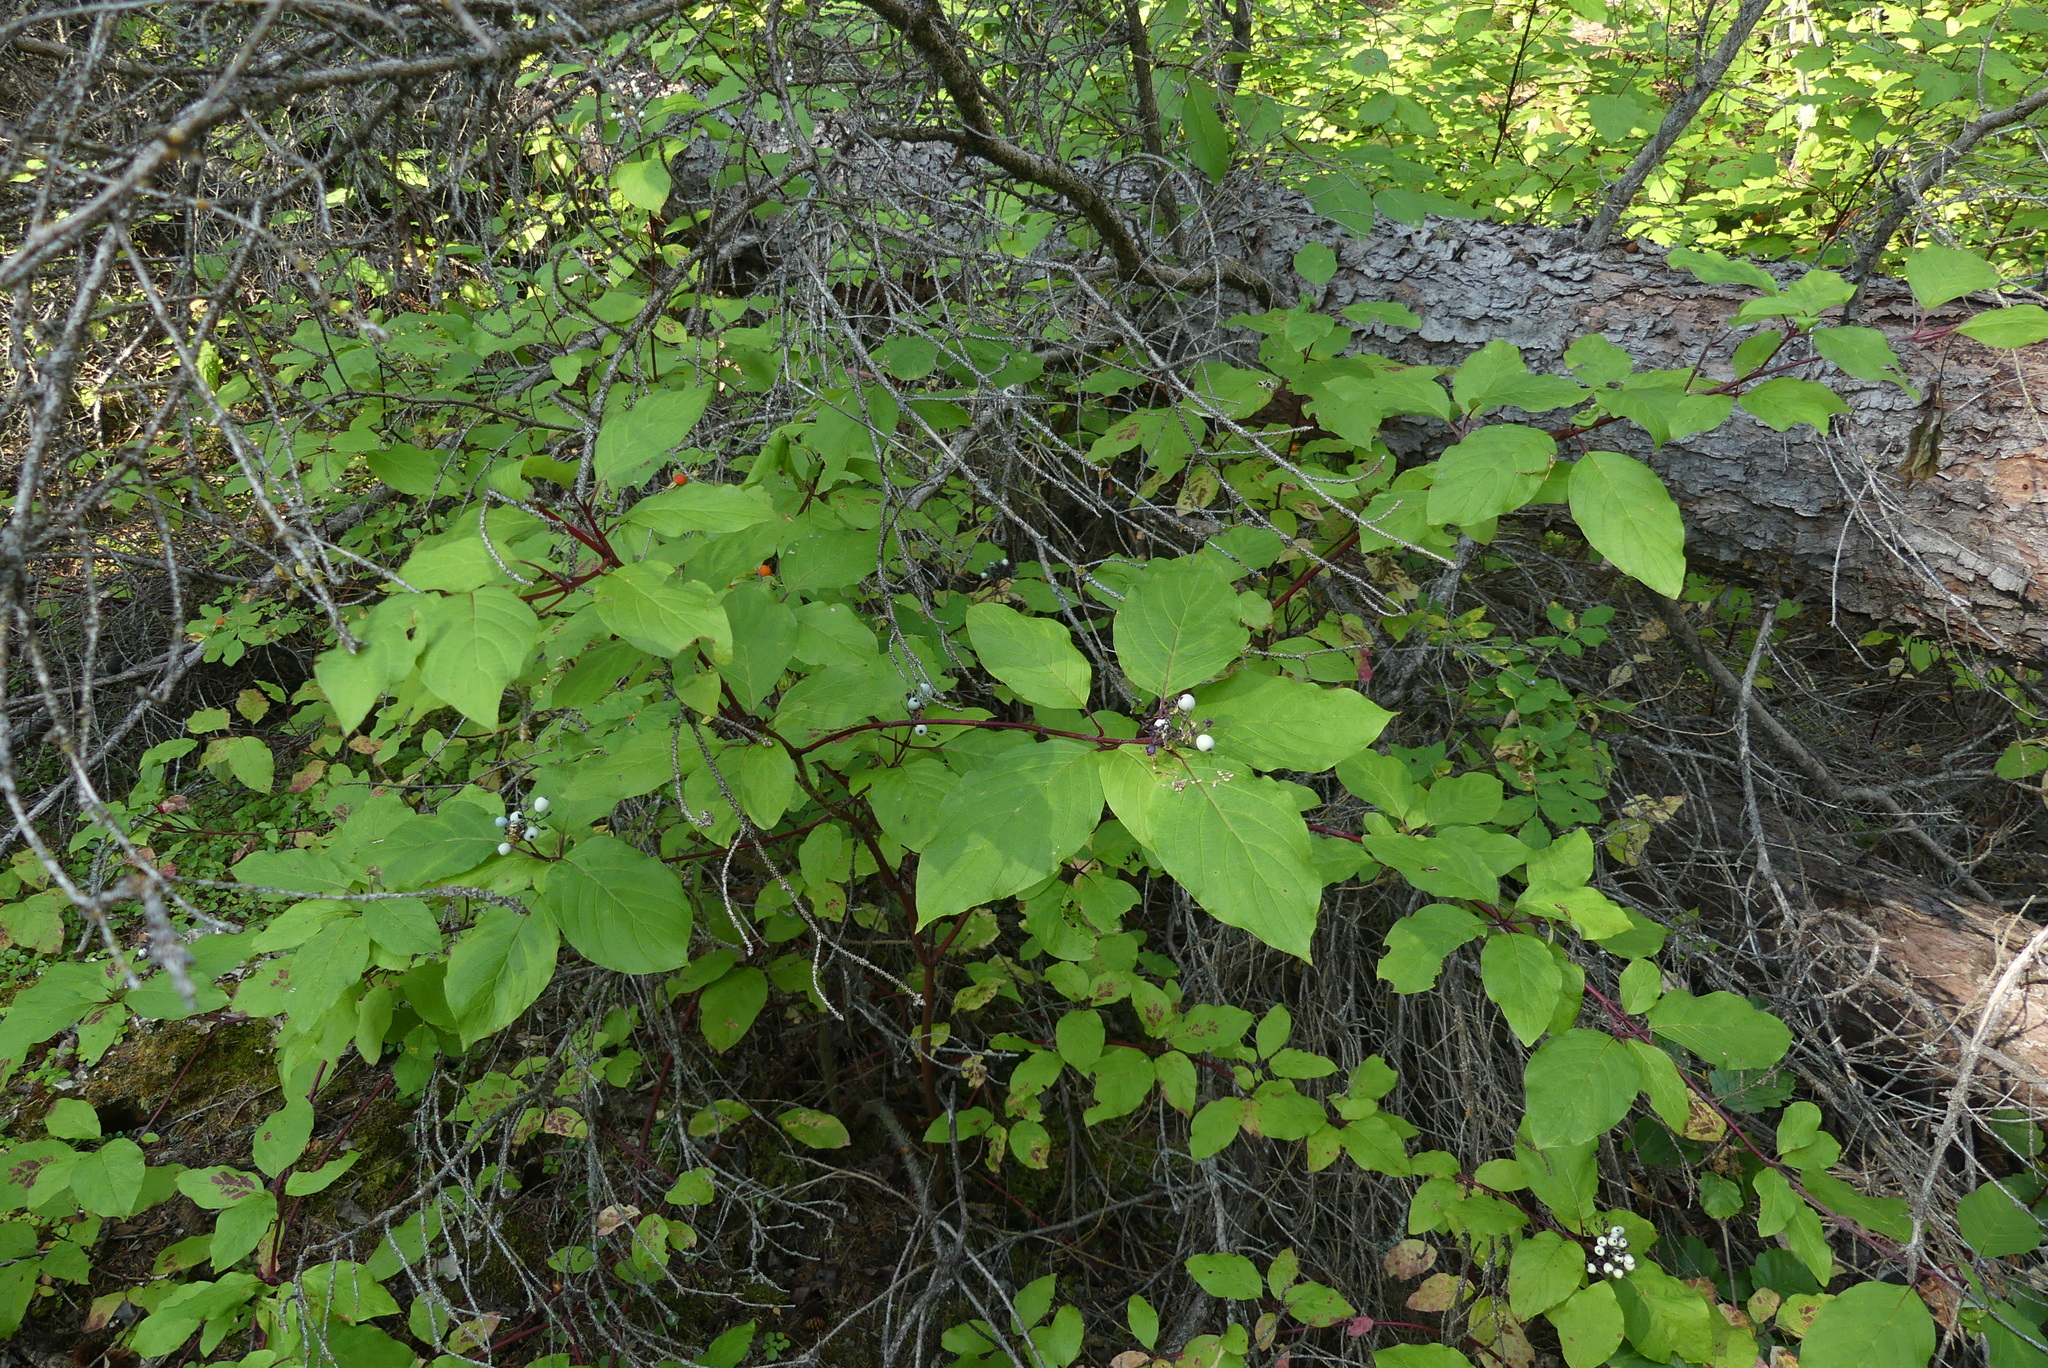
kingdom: Plantae
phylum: Tracheophyta
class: Magnoliopsida
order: Cornales
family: Cornaceae
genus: Cornus
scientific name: Cornus sericea
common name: Red-osier dogwood
